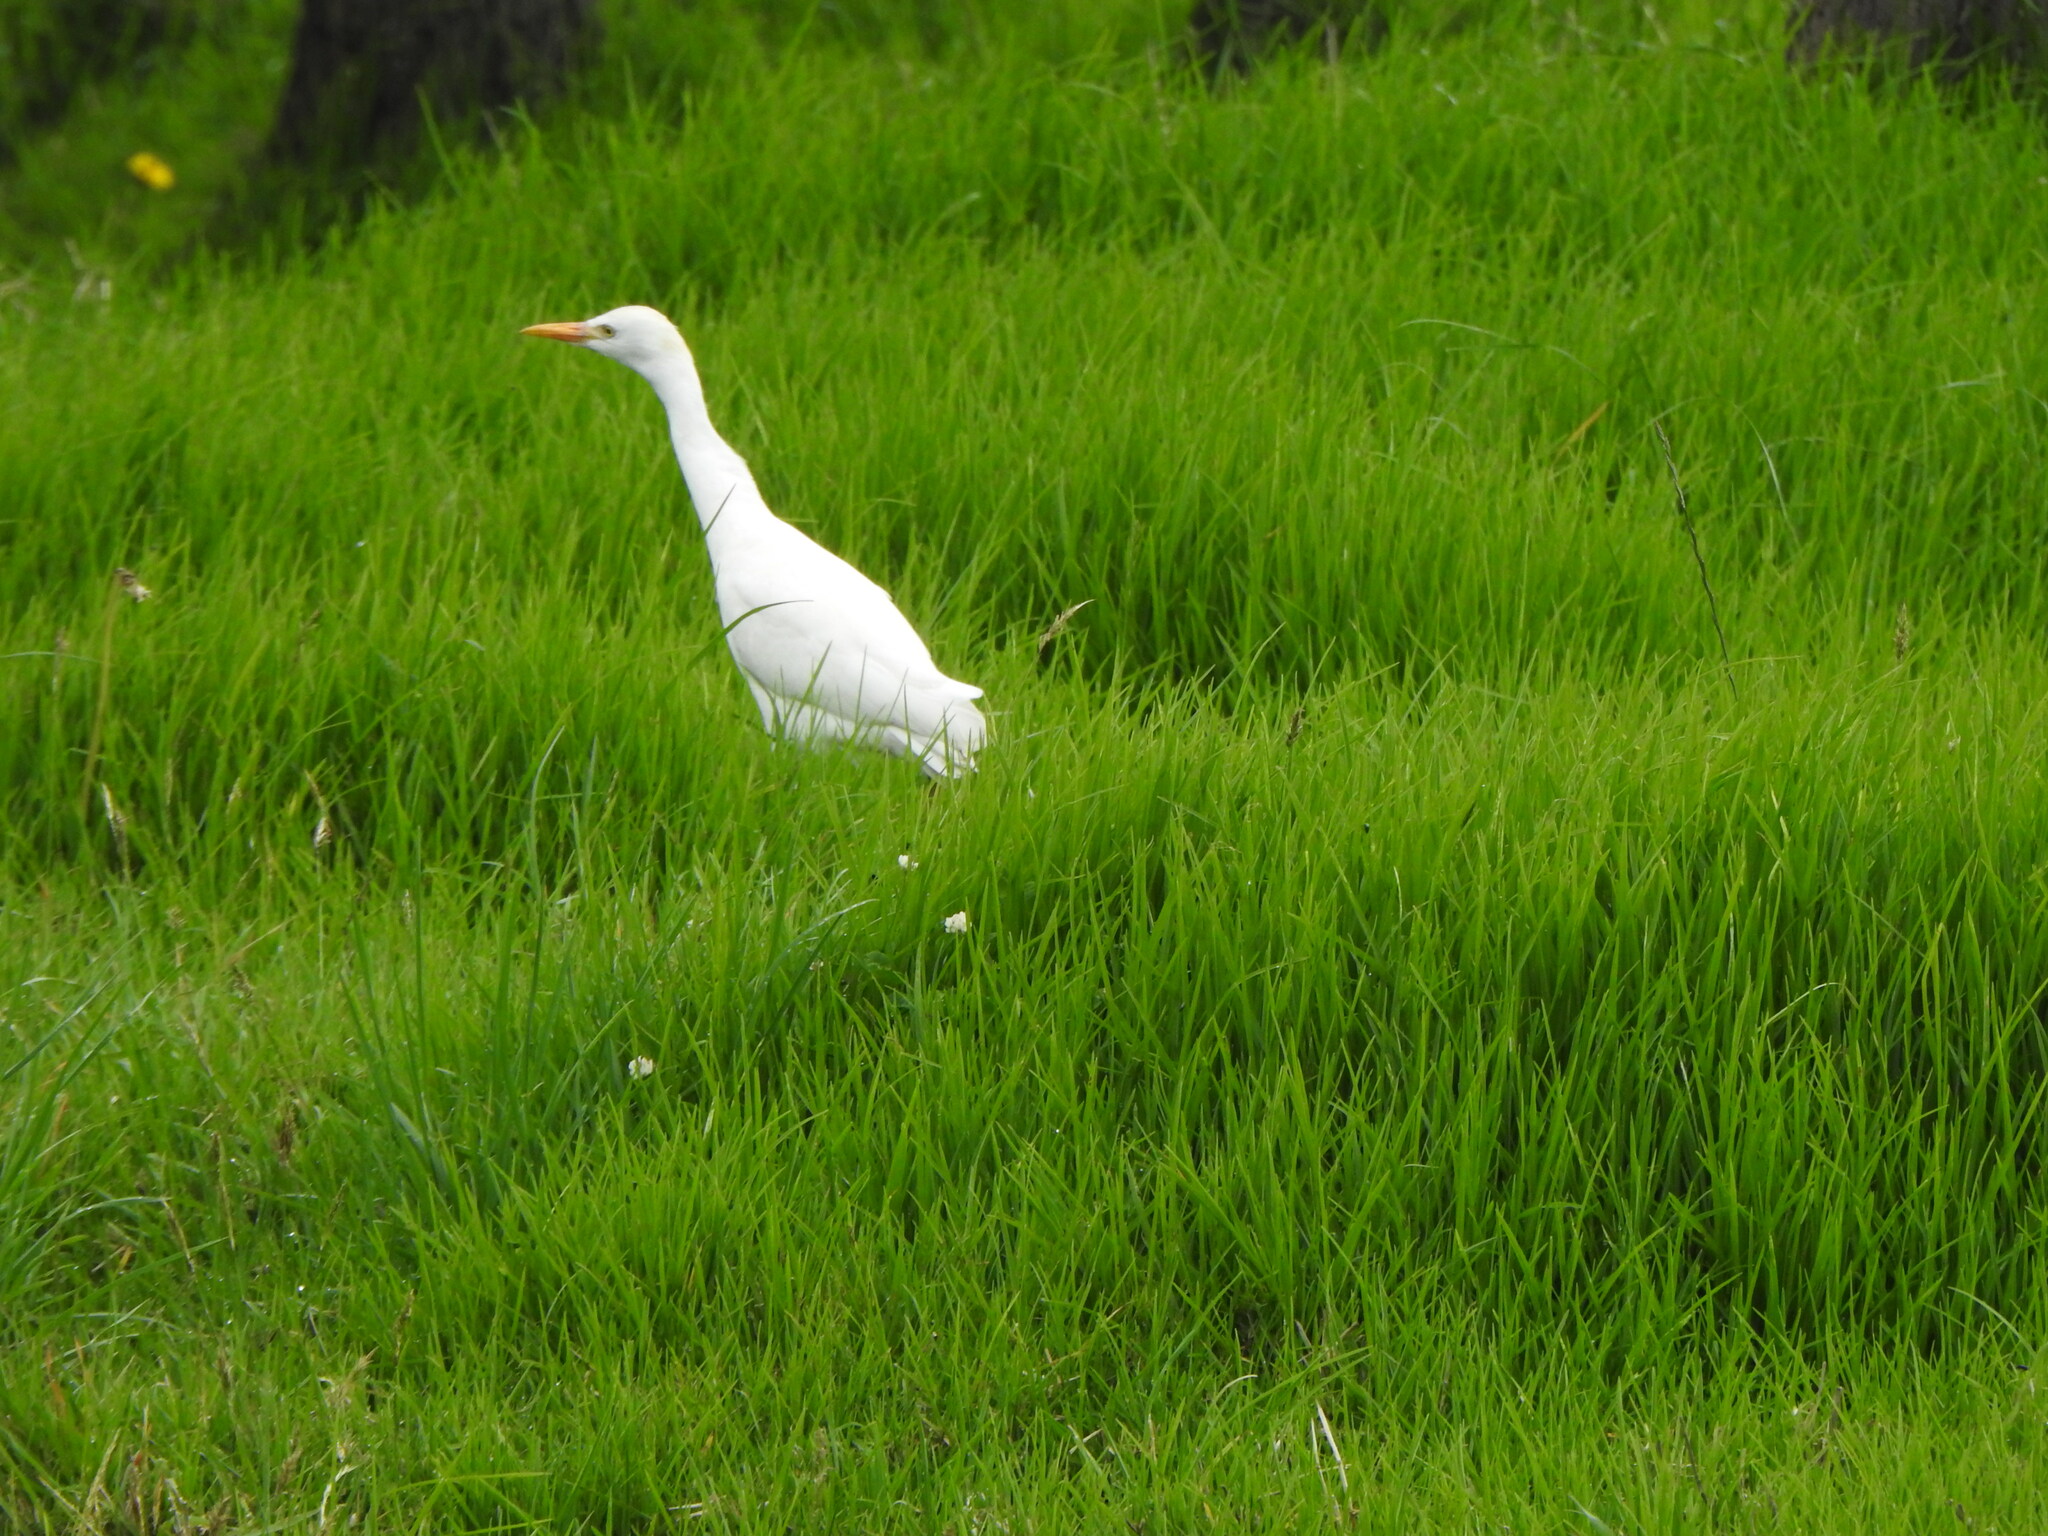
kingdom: Animalia
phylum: Chordata
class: Aves
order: Pelecaniformes
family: Ardeidae
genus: Bubulcus
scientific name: Bubulcus ibis
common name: Cattle egret
